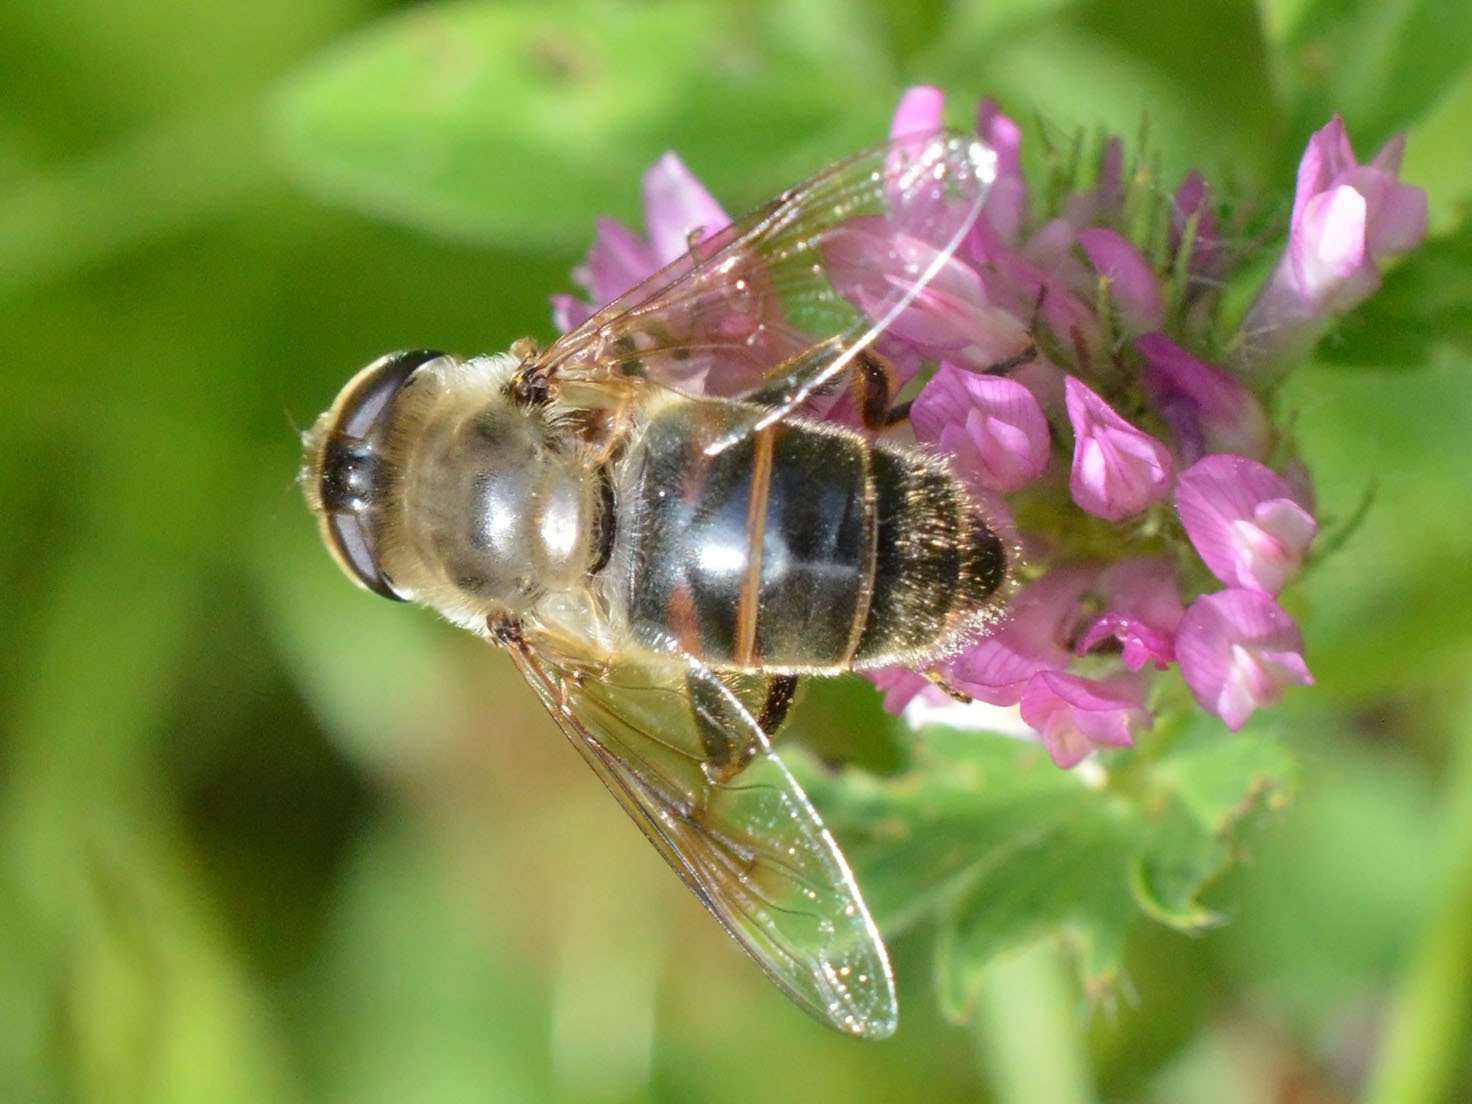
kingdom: Animalia
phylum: Arthropoda
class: Insecta
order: Diptera
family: Syrphidae
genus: Eristalis
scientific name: Eristalis tenax
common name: Drone fly
